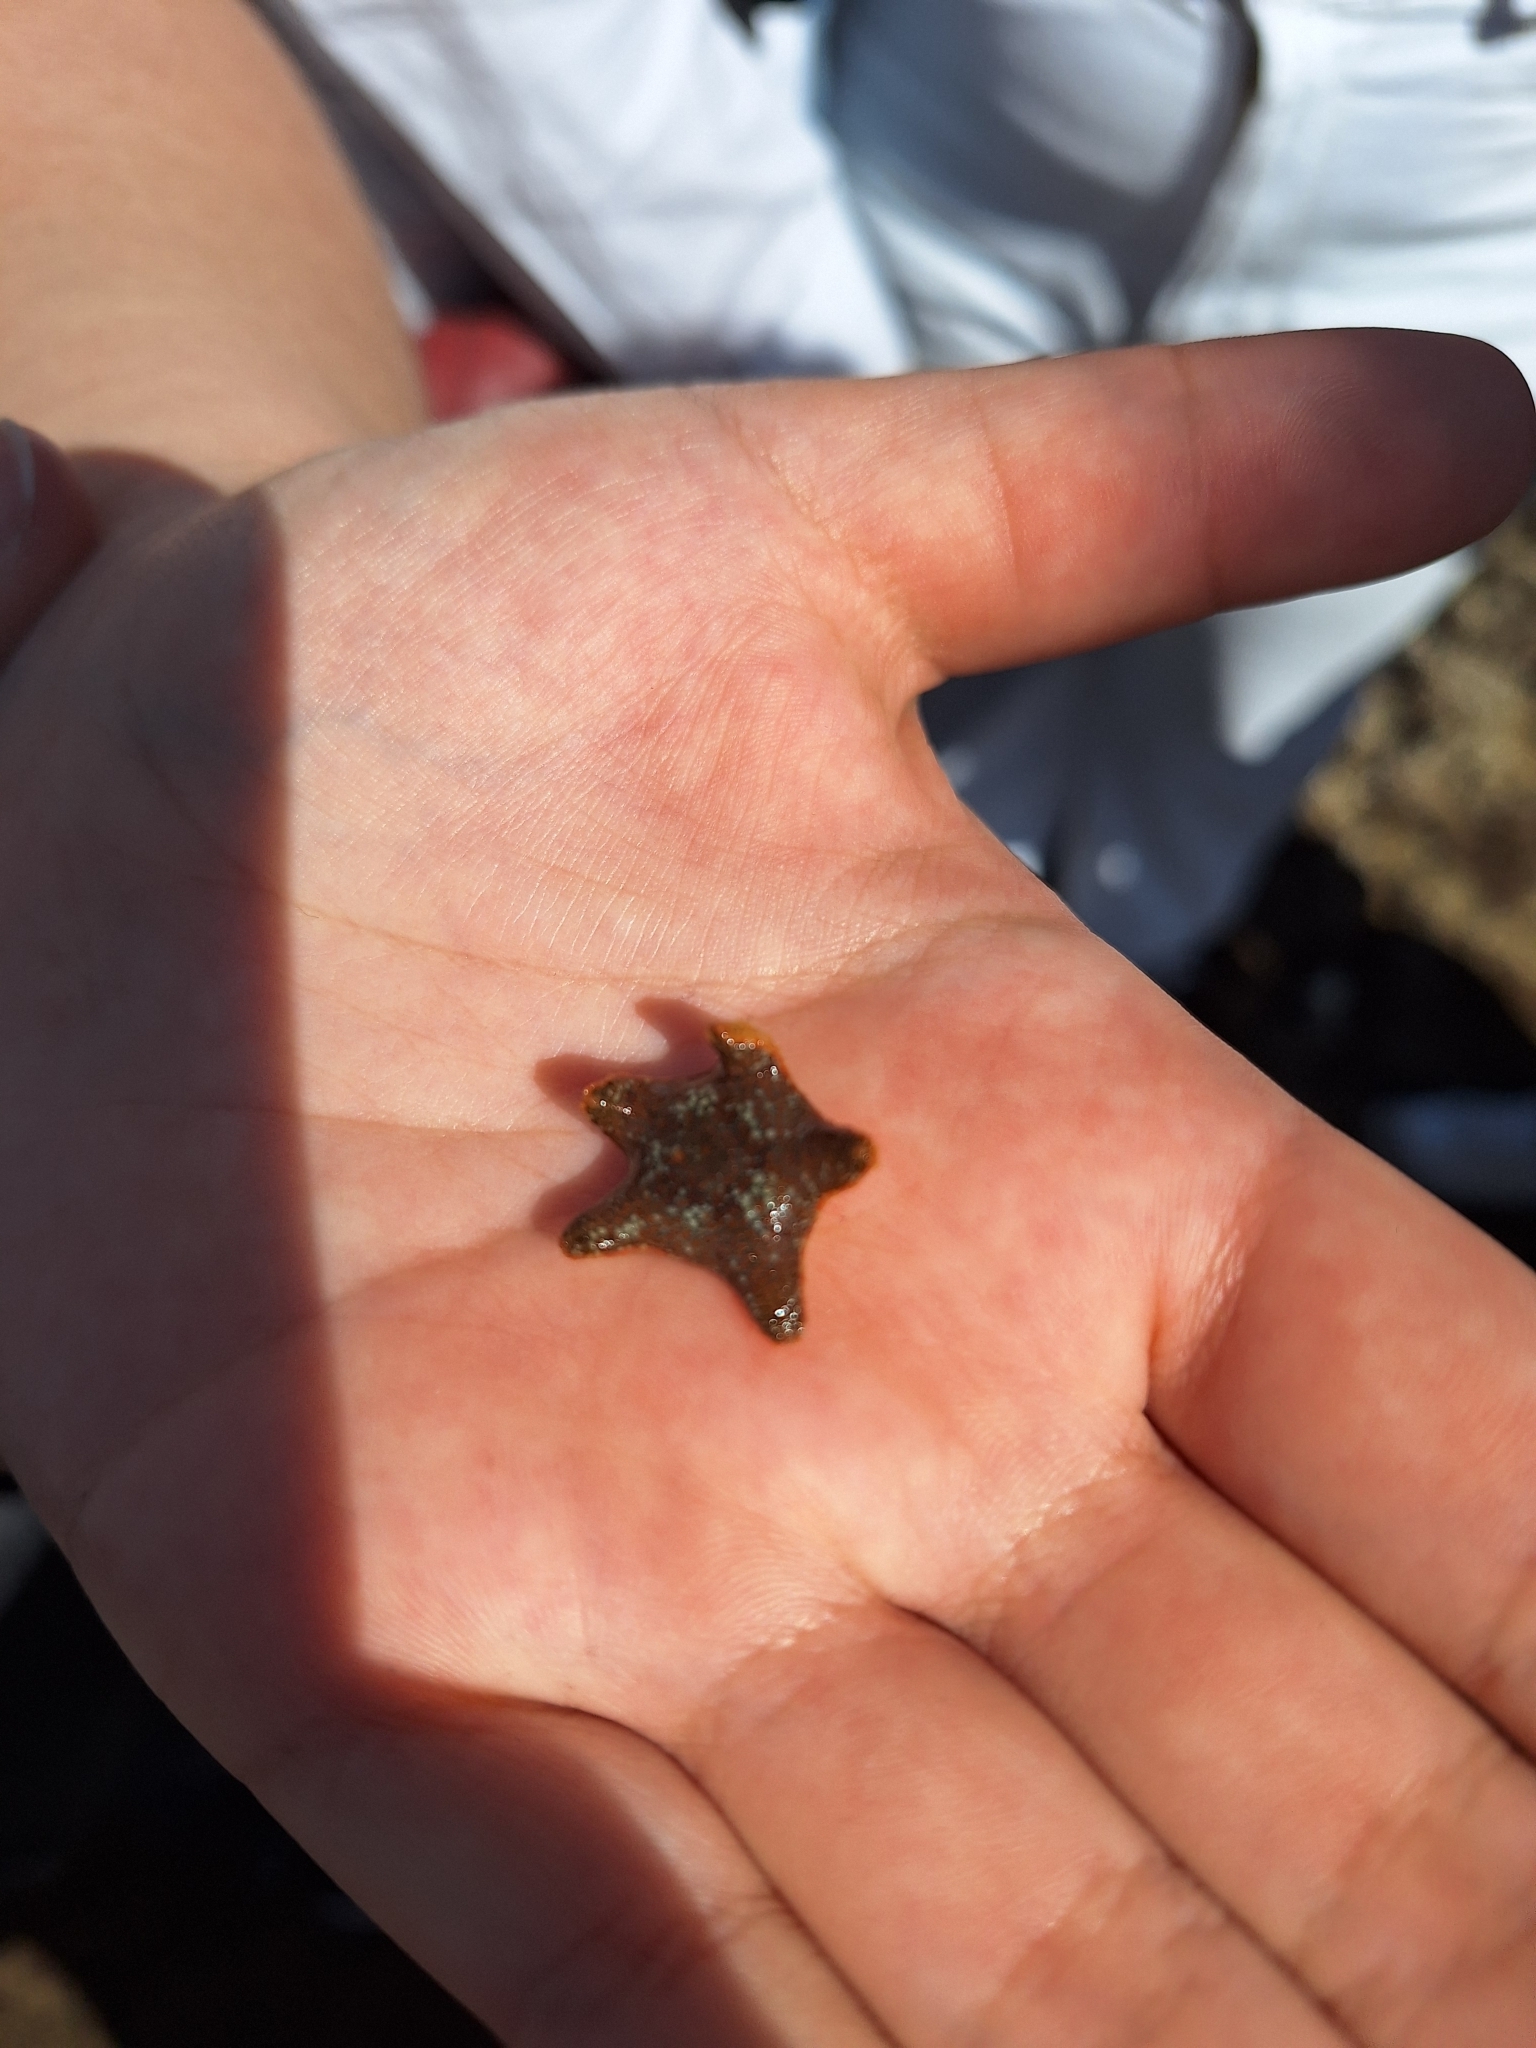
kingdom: Animalia
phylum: Echinodermata
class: Asteroidea
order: Valvatida
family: Asterinidae
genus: Asterina
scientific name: Asterina gibbosa
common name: Cushion star
